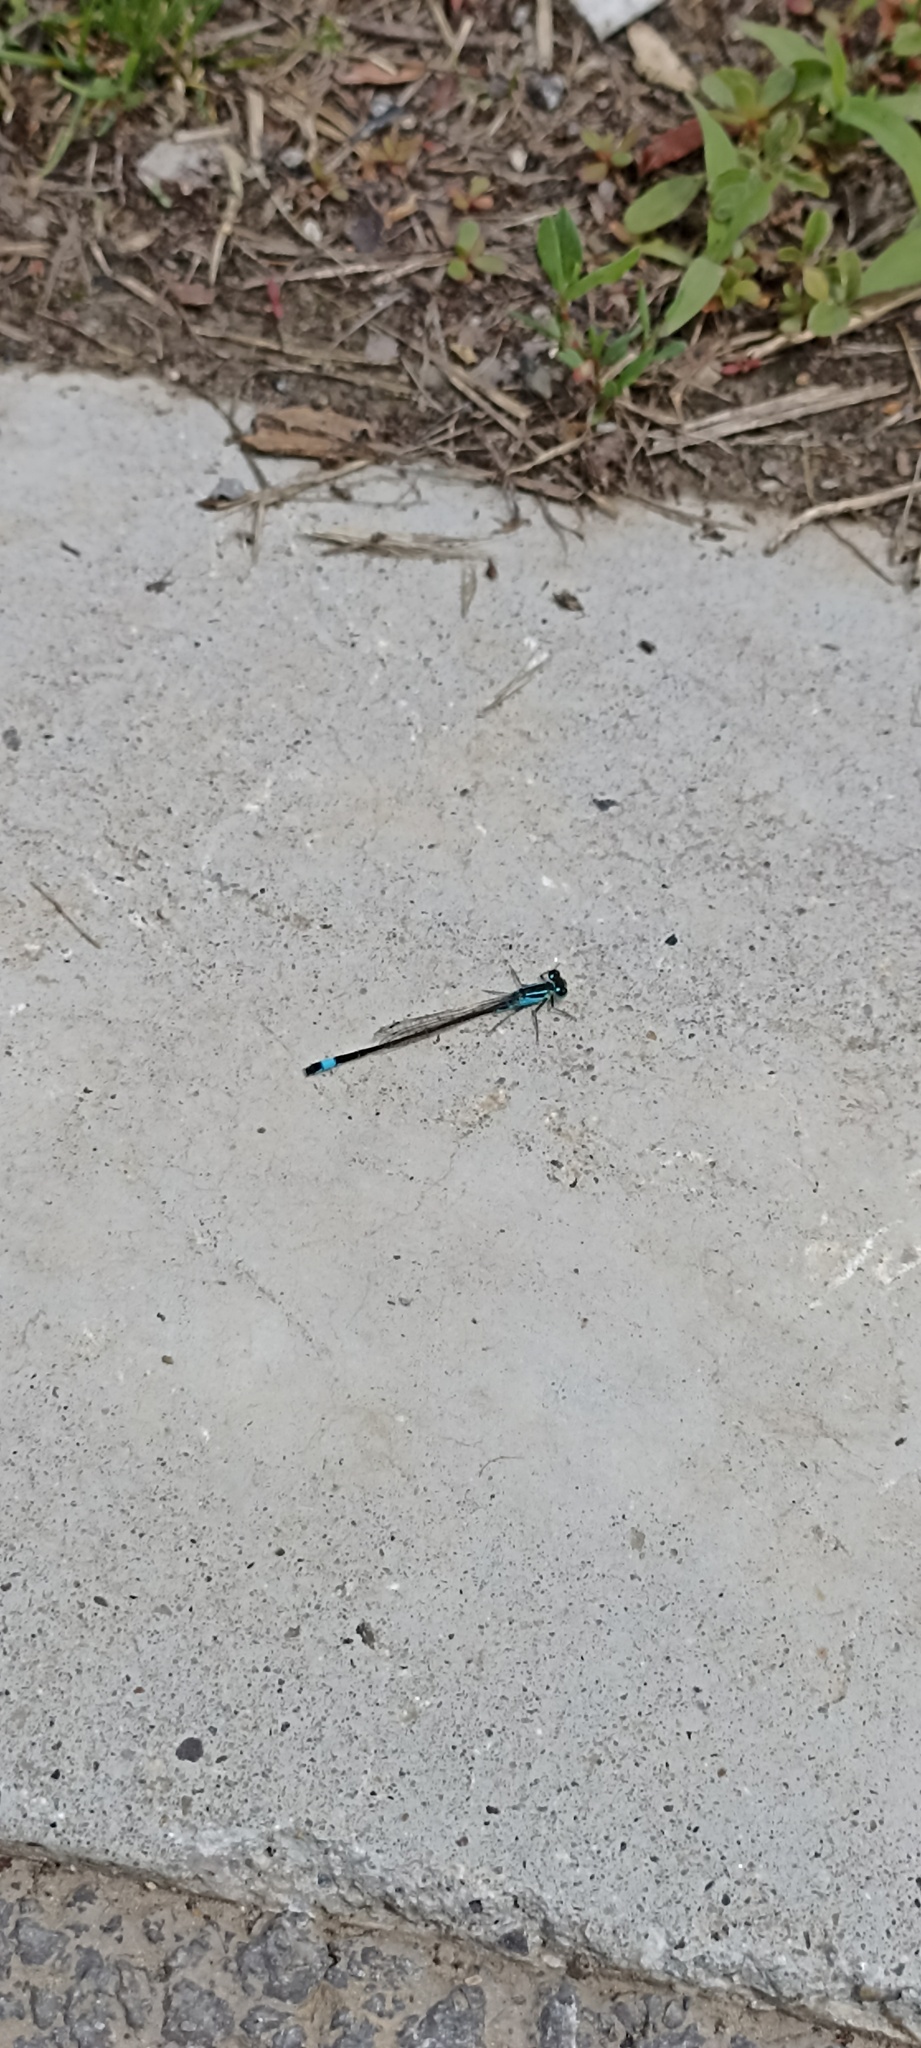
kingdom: Animalia
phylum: Arthropoda
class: Insecta
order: Odonata
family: Coenagrionidae
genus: Ischnura
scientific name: Ischnura elegans
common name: Blue-tailed damselfly
